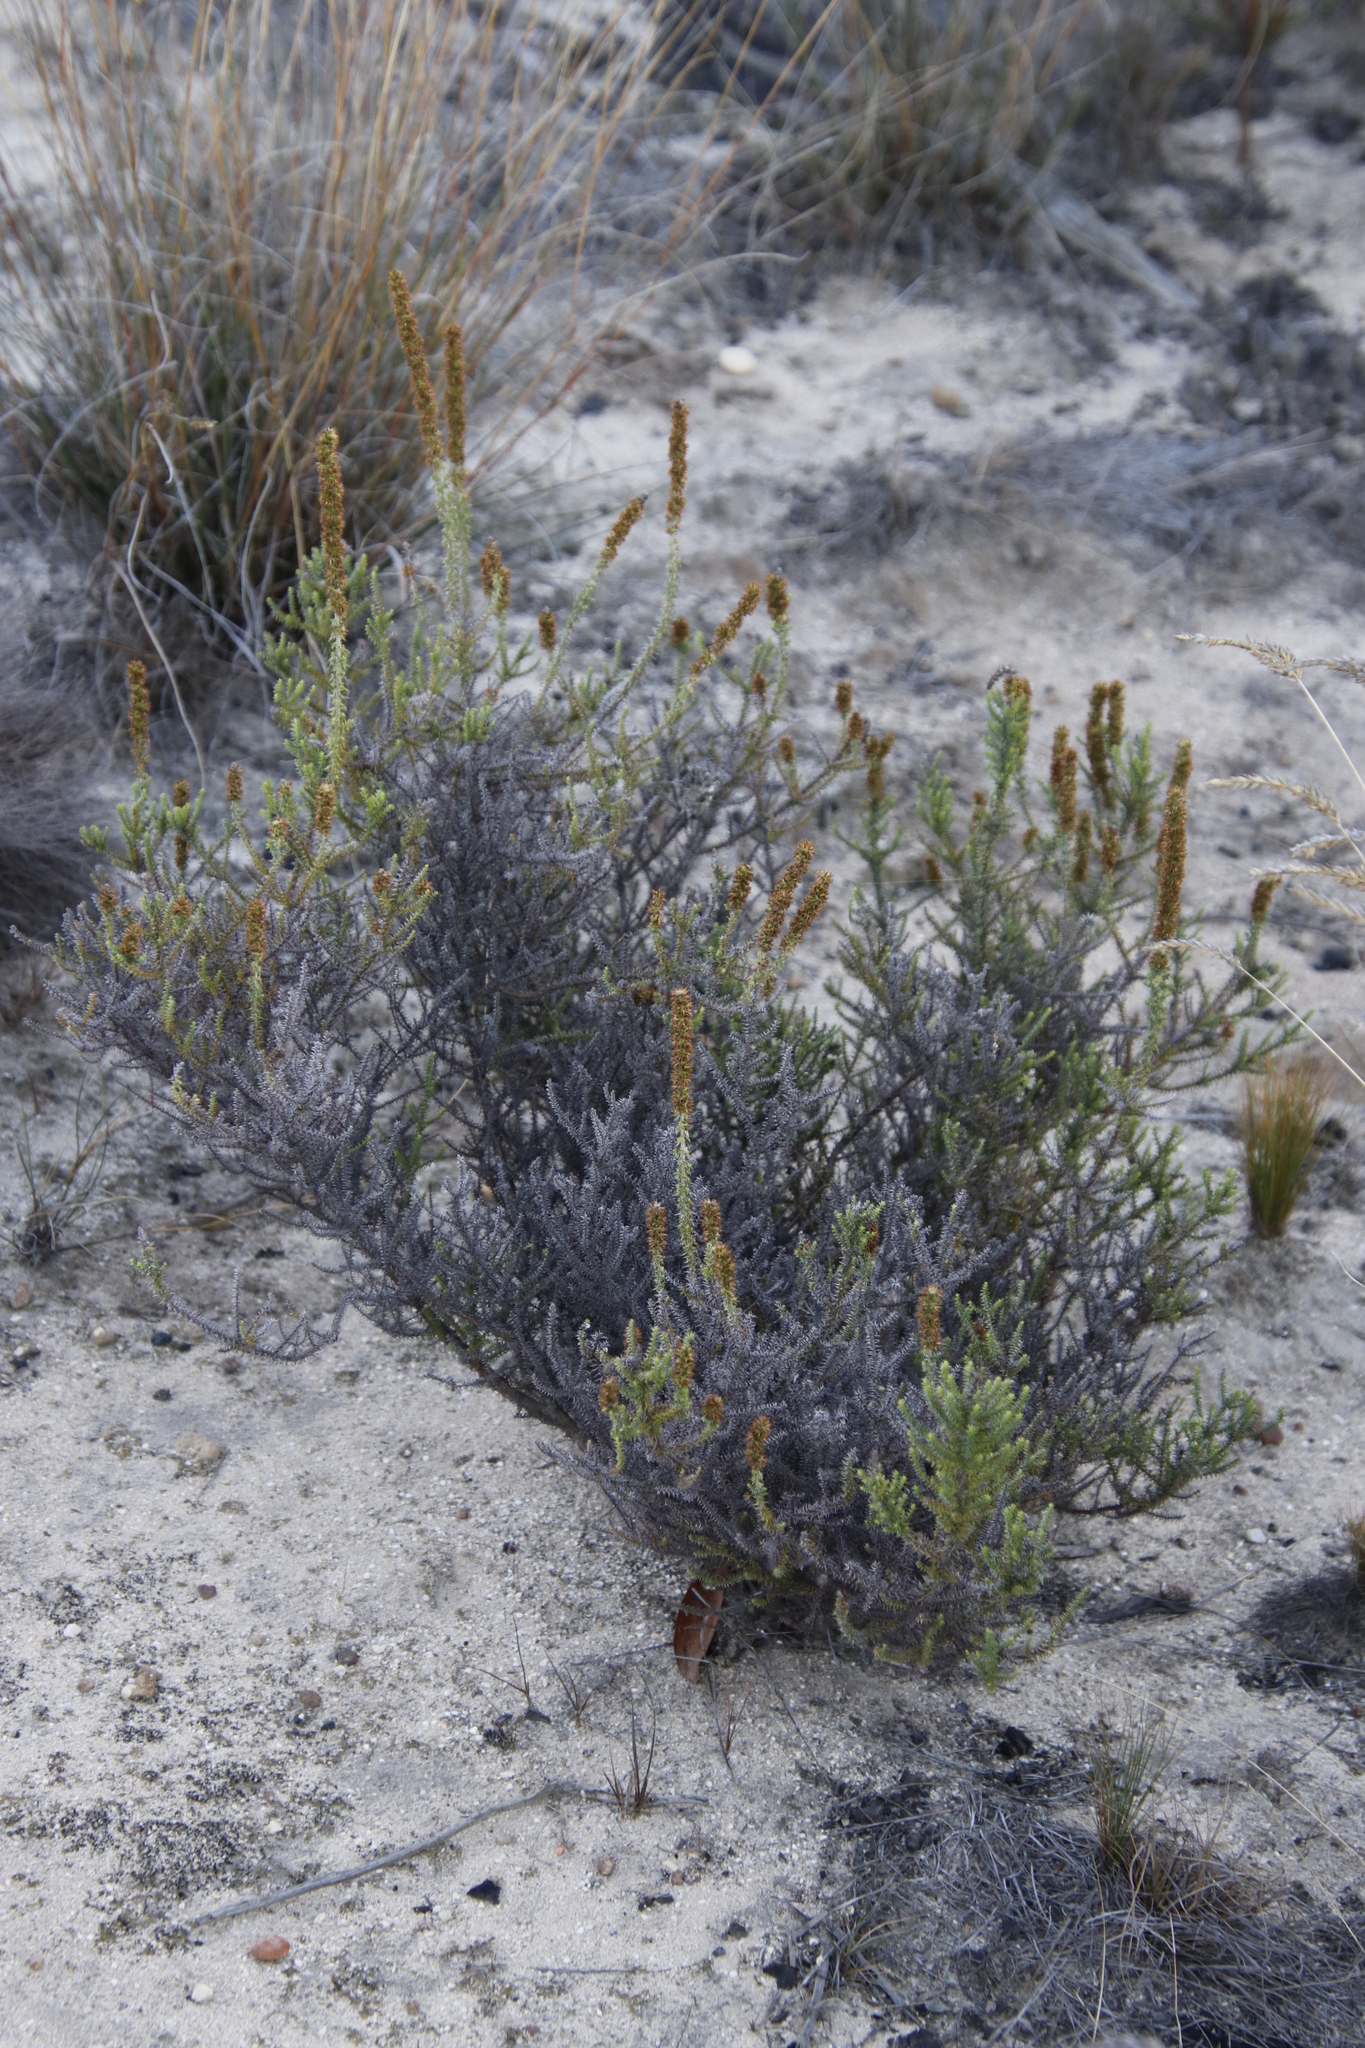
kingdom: Plantae
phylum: Tracheophyta
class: Magnoliopsida
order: Asterales
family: Asteraceae
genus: Seriphium
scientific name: Seriphium cinereum
